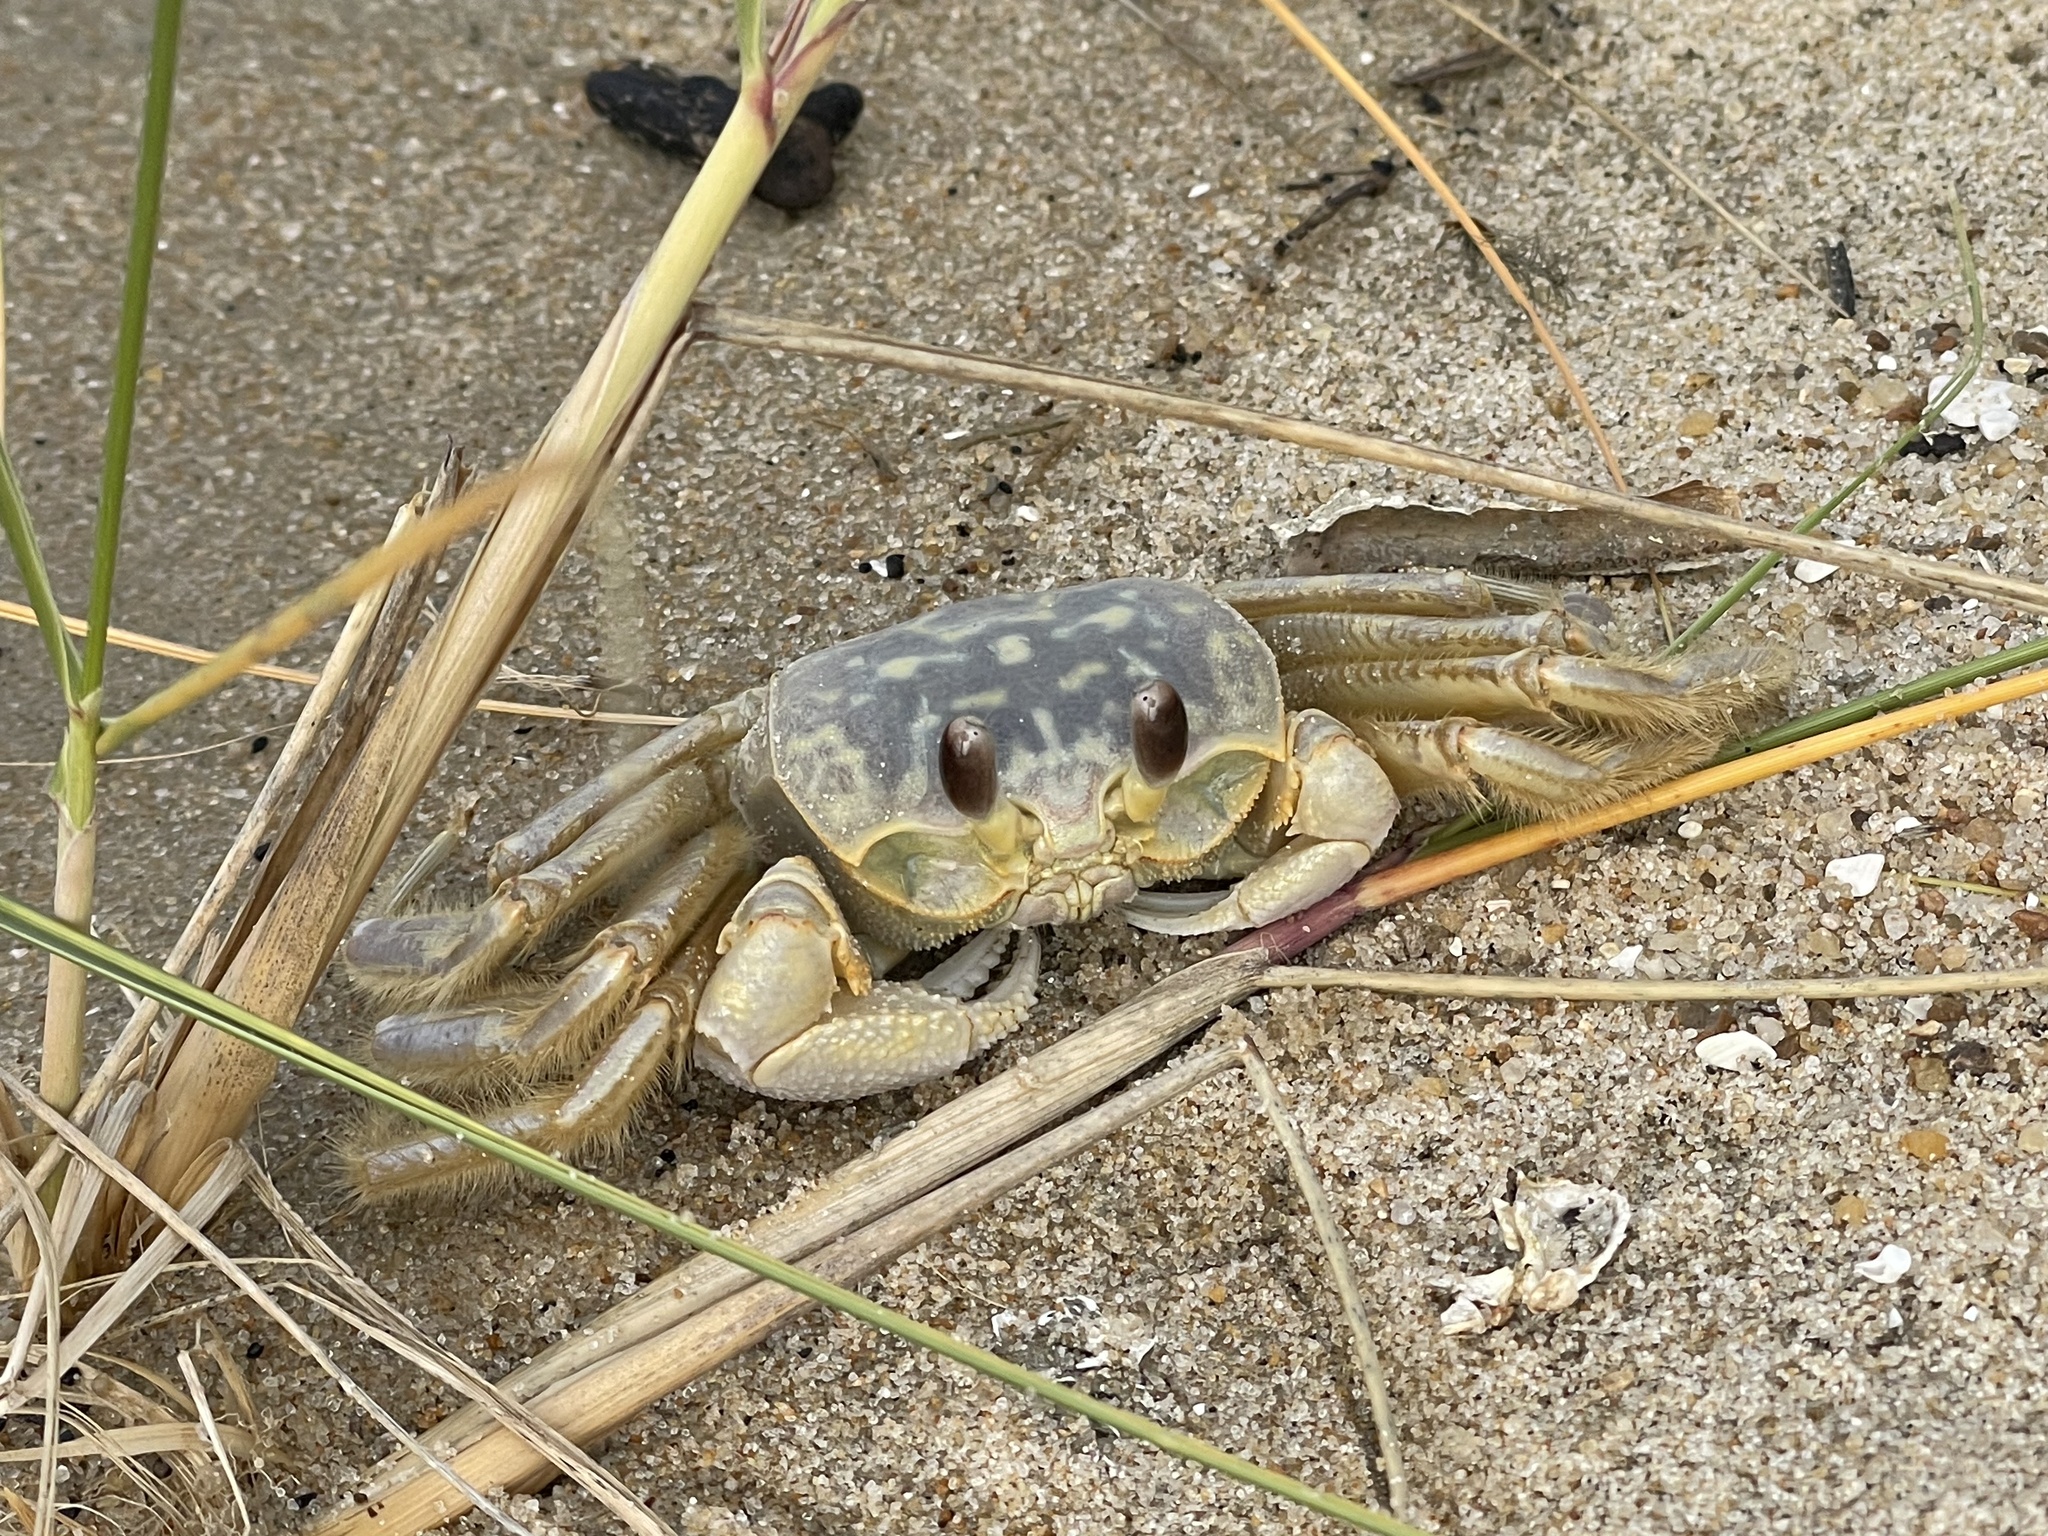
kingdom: Animalia
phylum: Arthropoda
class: Malacostraca
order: Decapoda
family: Ocypodidae
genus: Ocypode
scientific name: Ocypode quadrata
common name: Ghost crab
